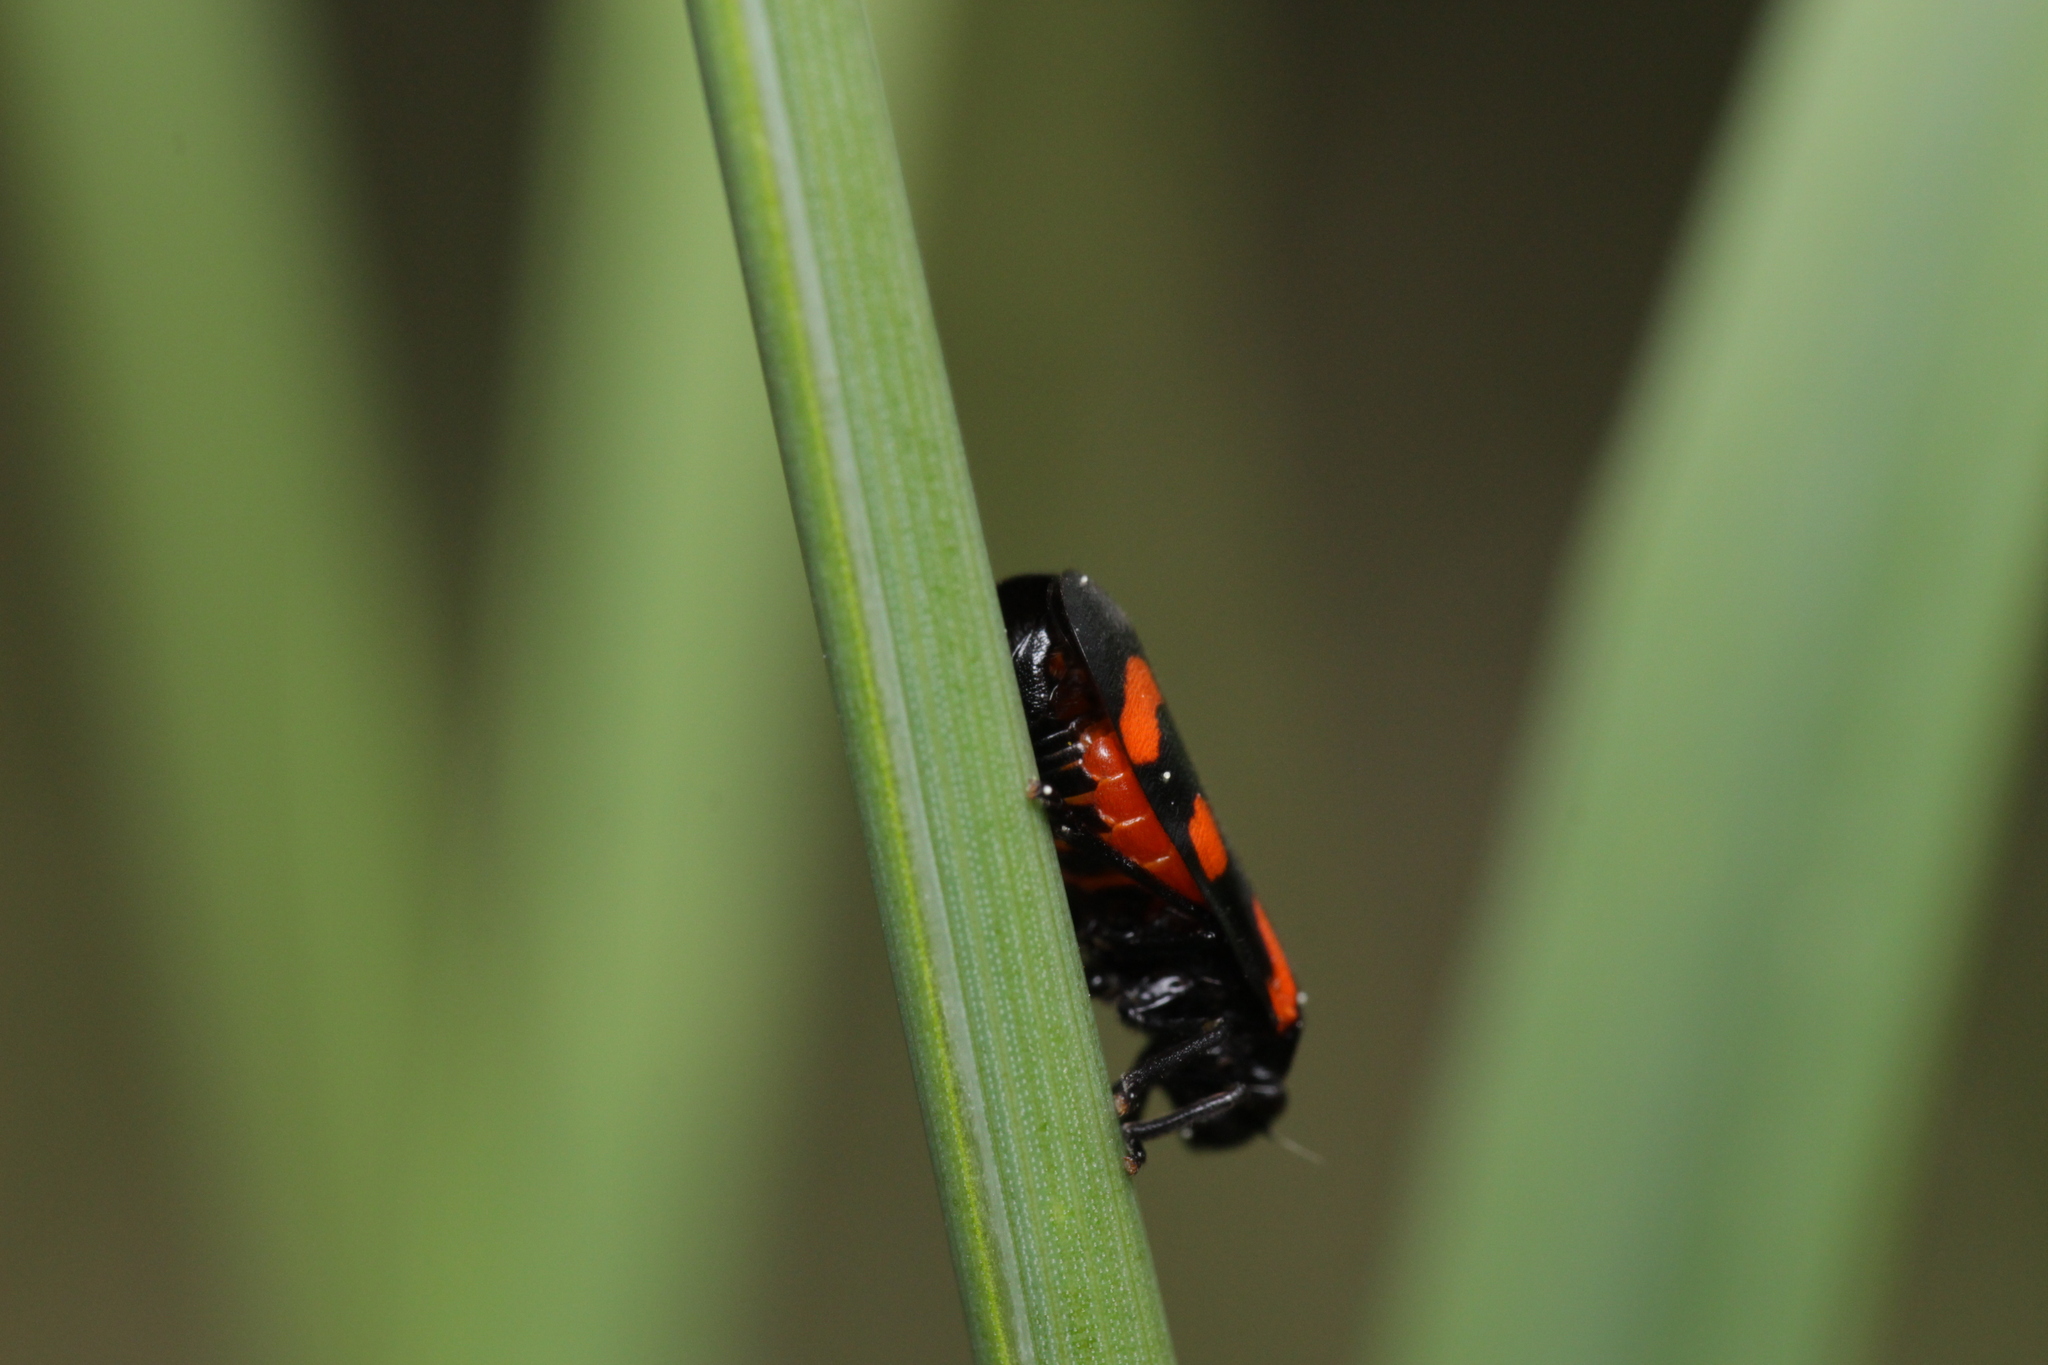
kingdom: Animalia
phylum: Arthropoda
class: Insecta
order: Hemiptera
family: Cercopidae
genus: Cercopis
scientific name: Cercopis arcuata
